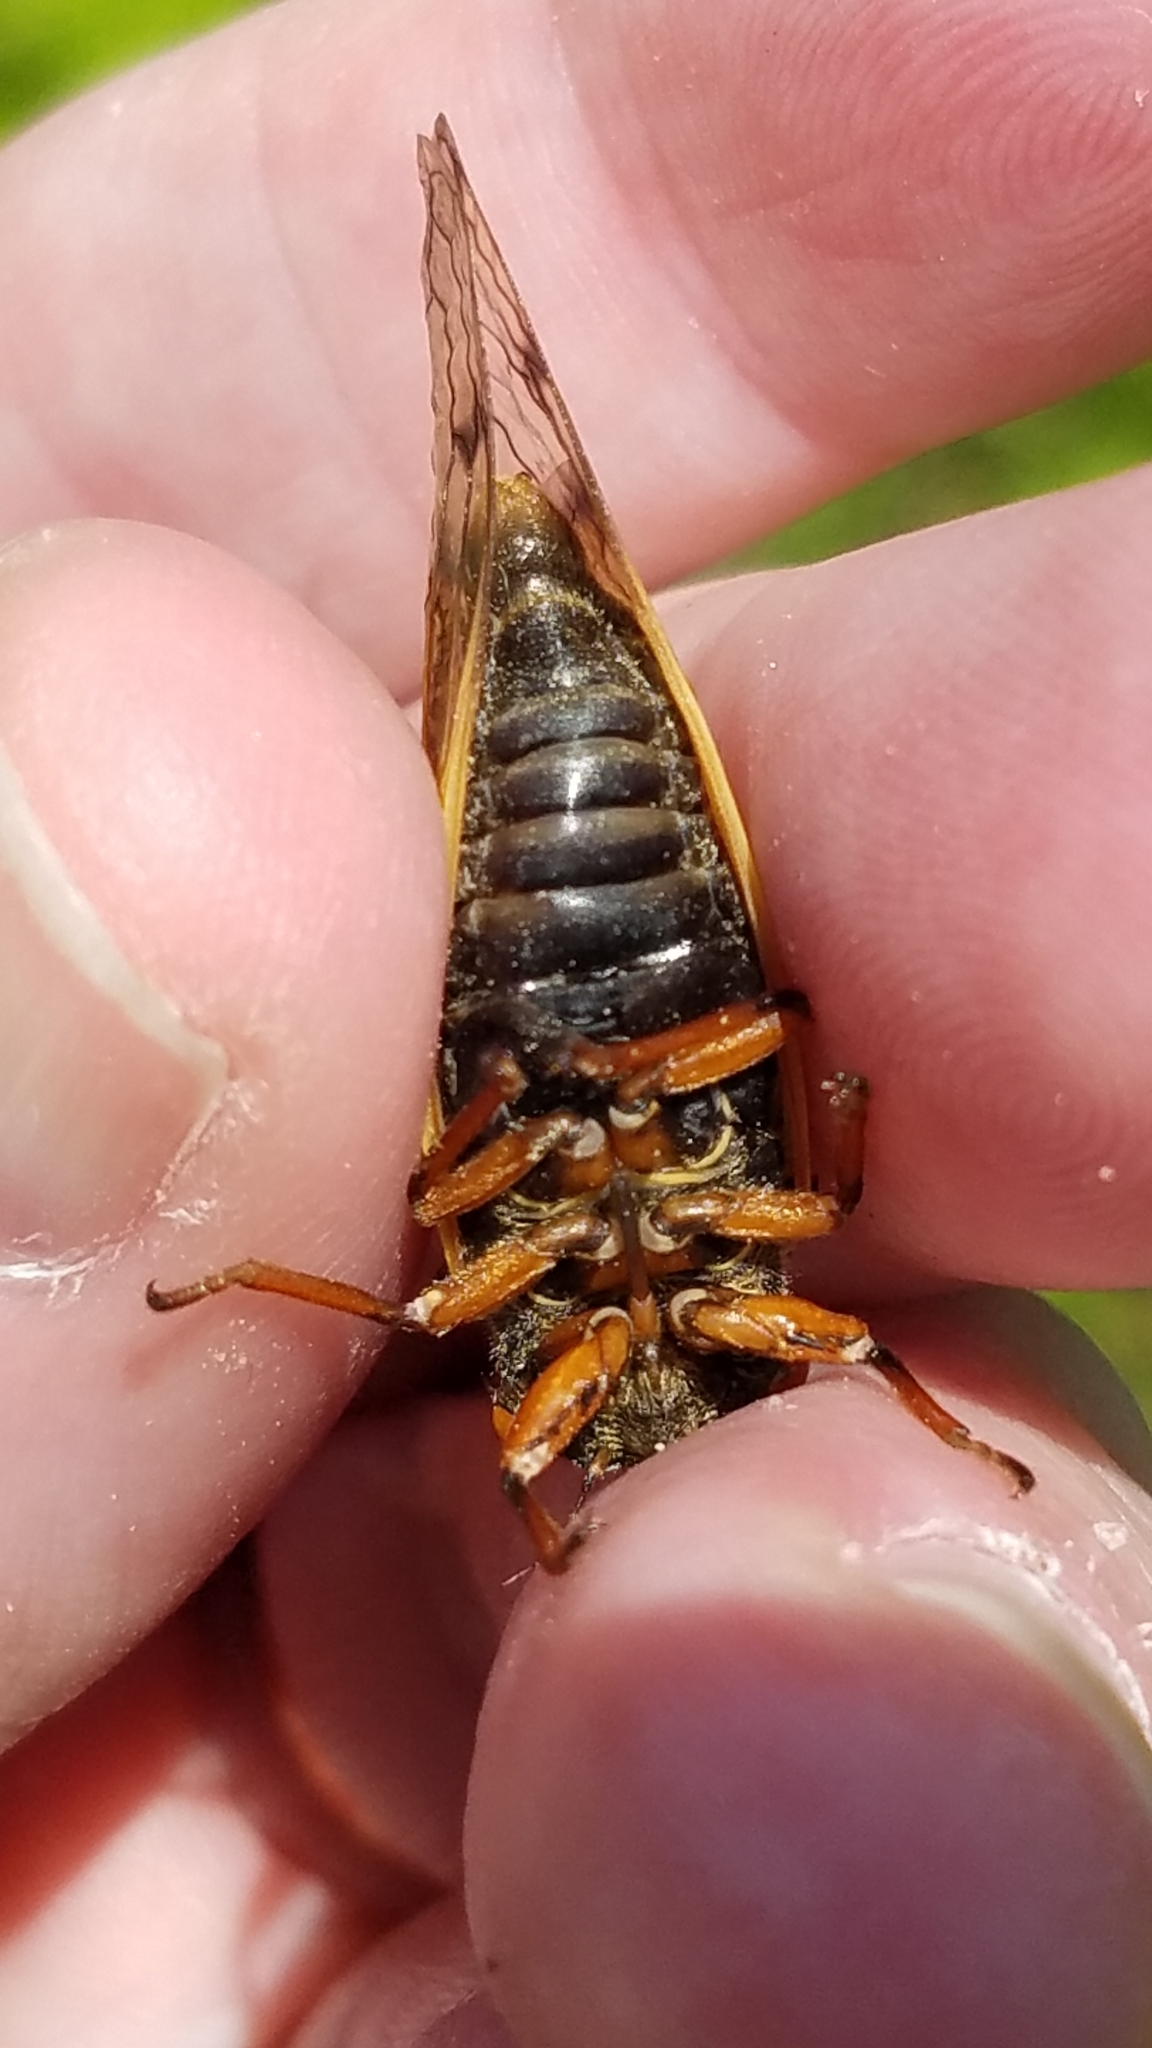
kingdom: Animalia
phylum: Arthropoda
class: Insecta
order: Hemiptera
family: Cicadidae
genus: Magicicada
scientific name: Magicicada cassini
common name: Cassin's 17-year cicada
